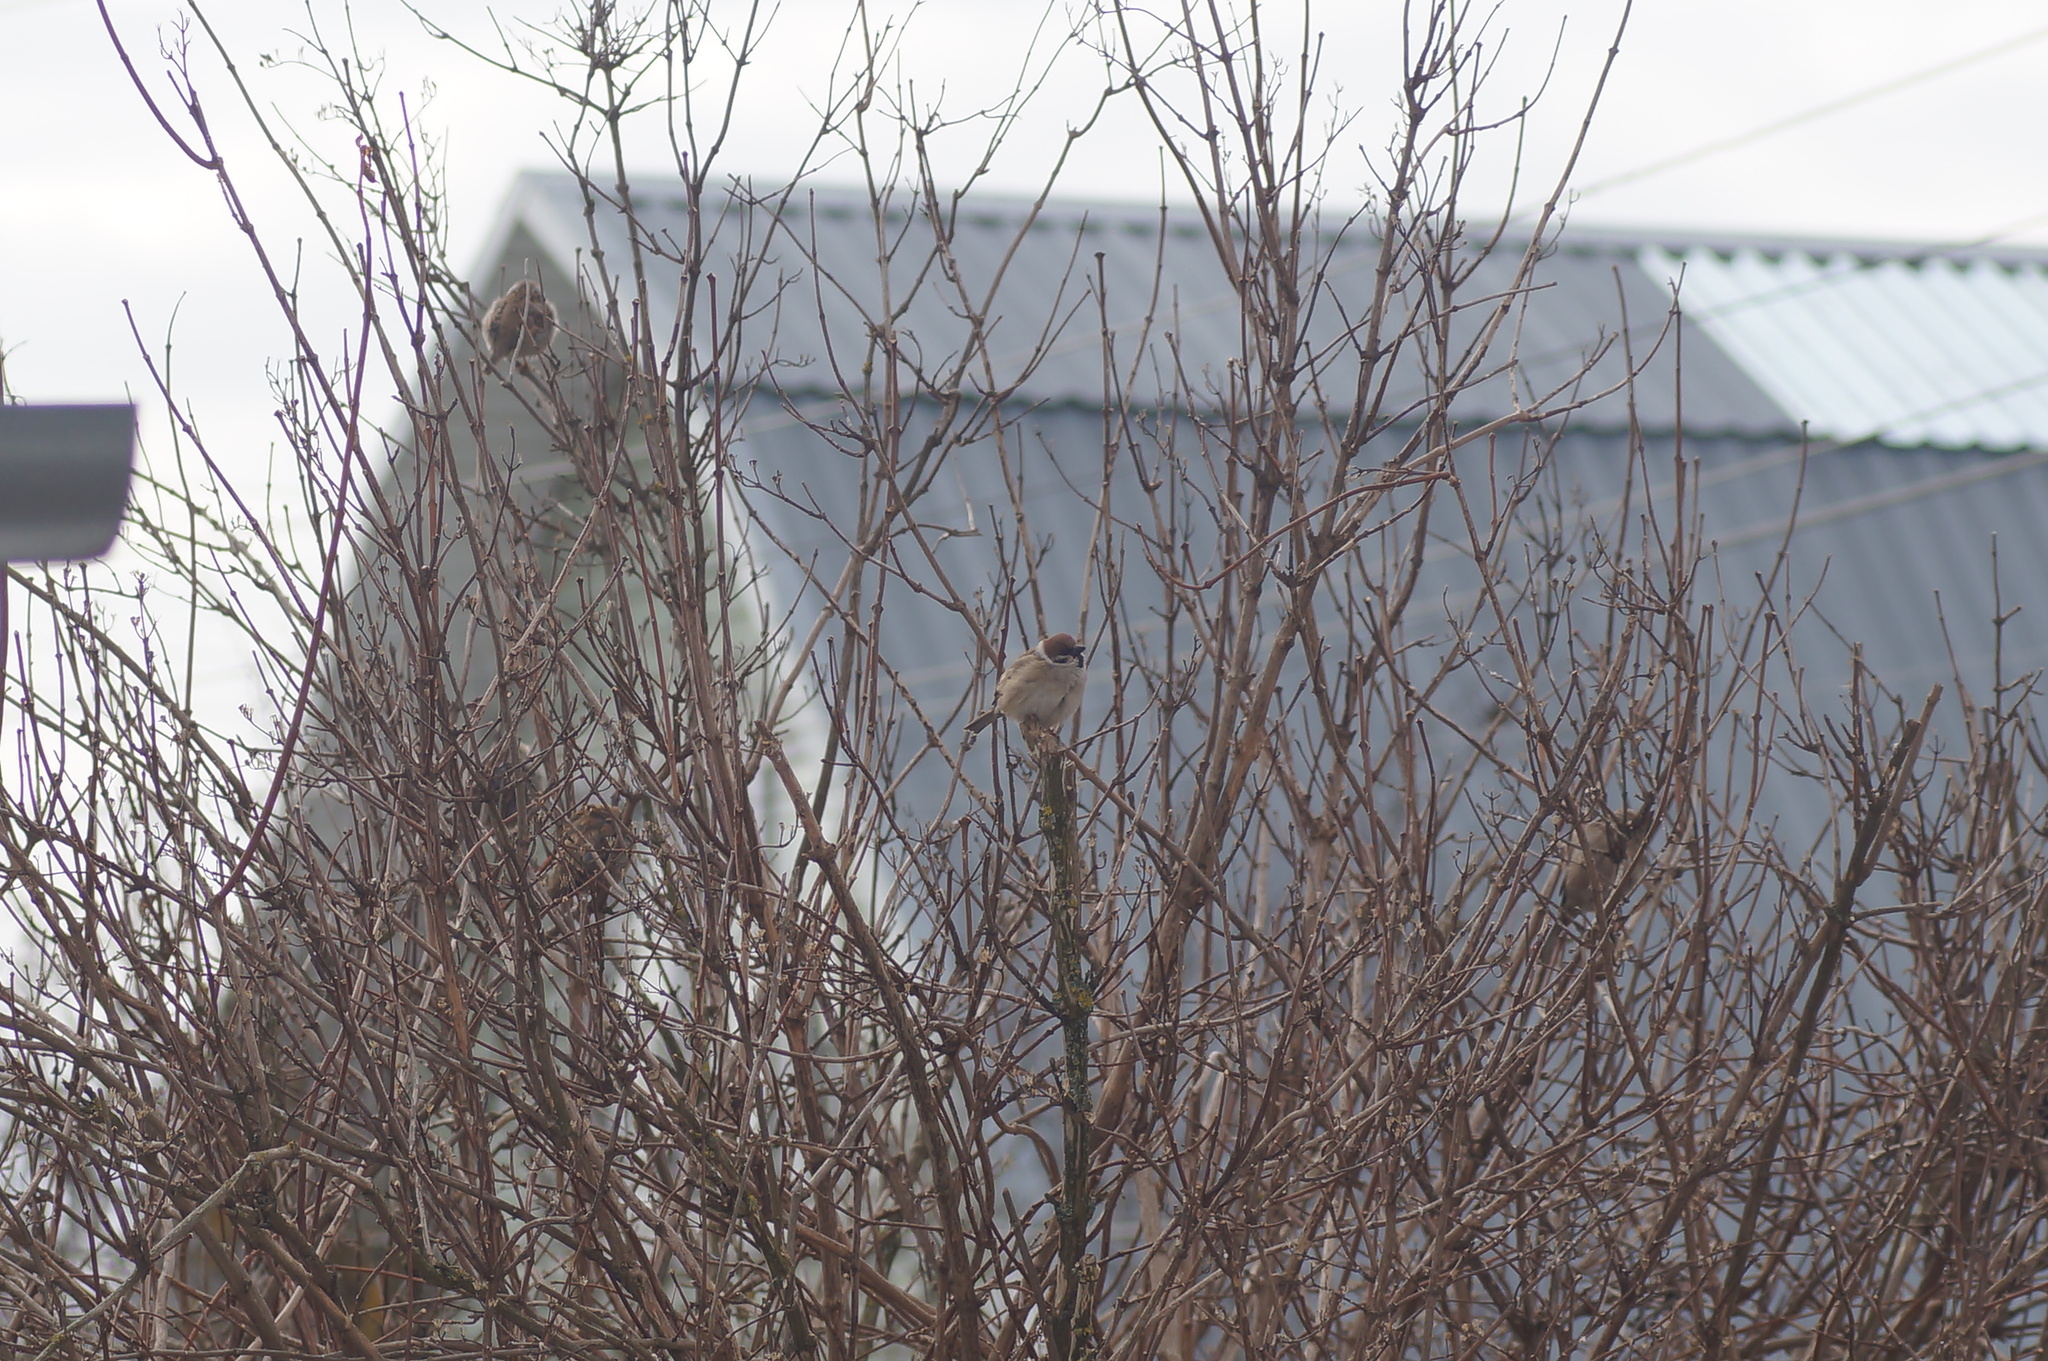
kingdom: Animalia
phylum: Chordata
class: Aves
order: Passeriformes
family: Passeridae
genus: Passer
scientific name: Passer montanus
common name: Eurasian tree sparrow
